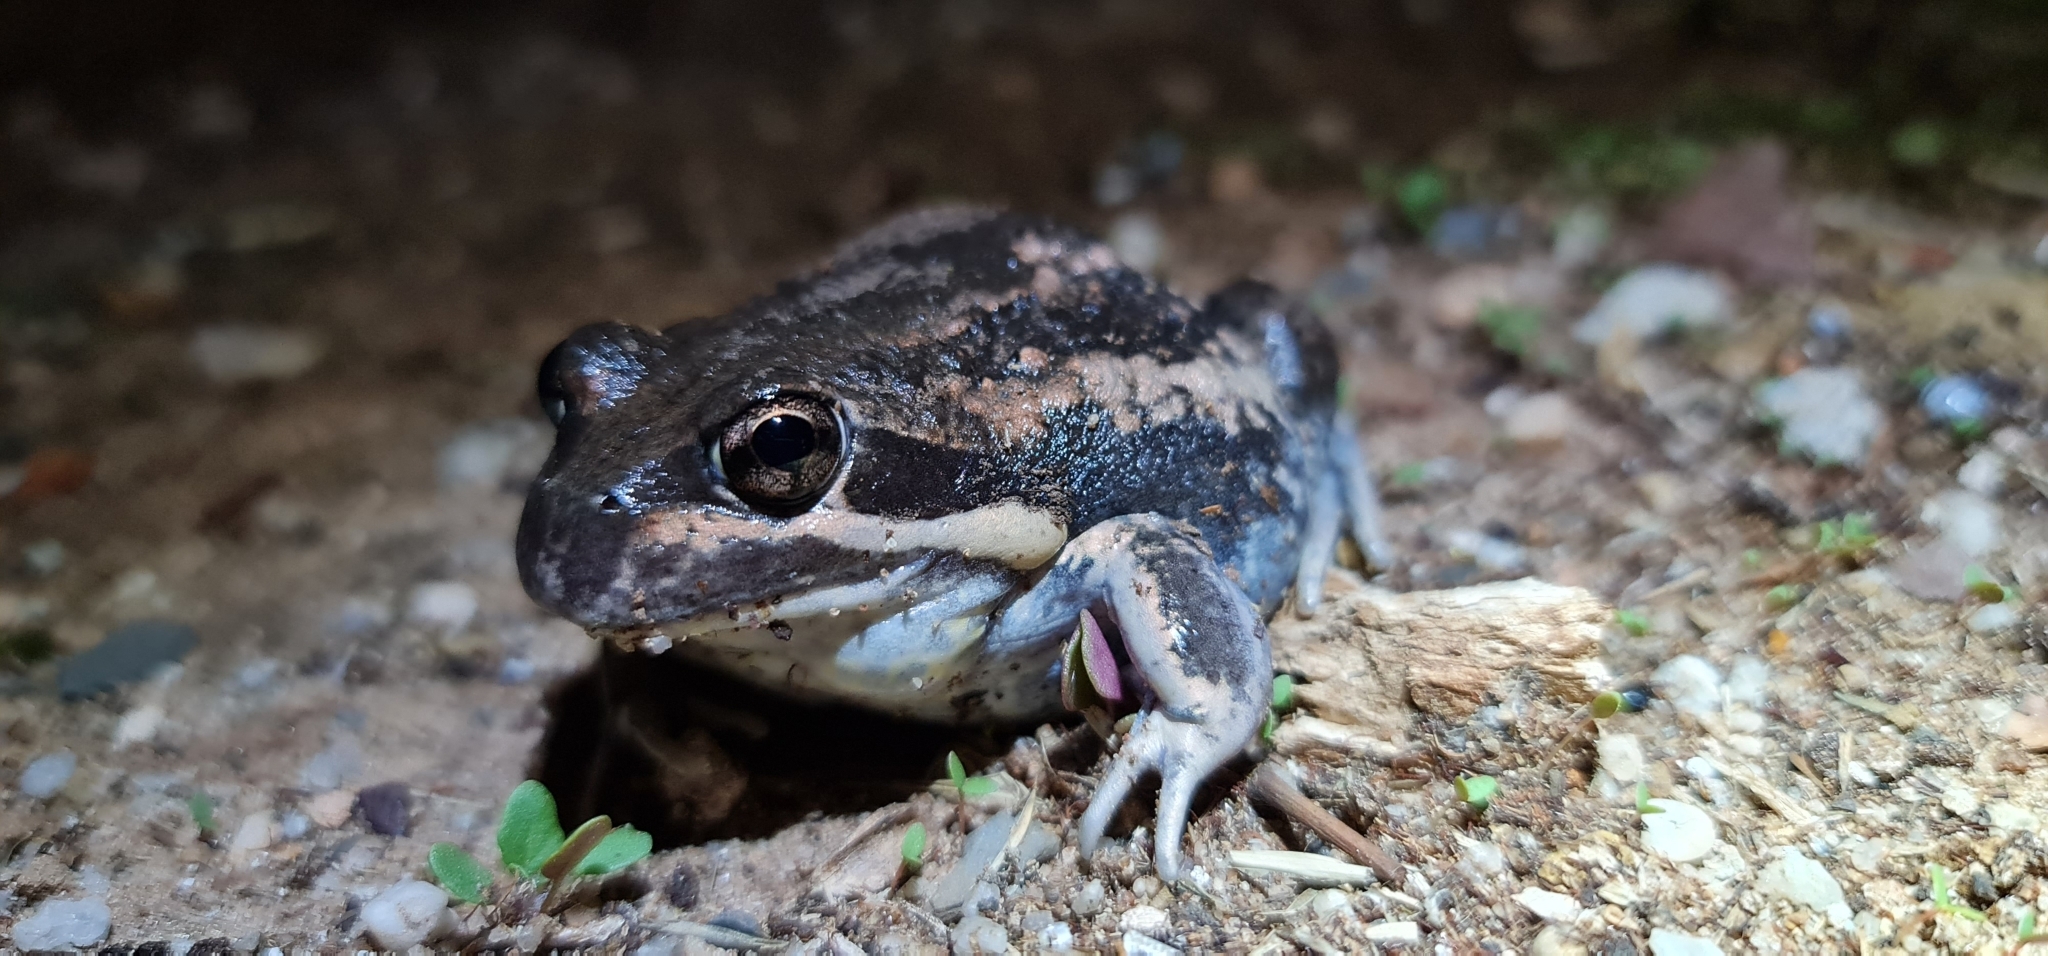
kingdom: Animalia
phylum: Chordata
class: Amphibia
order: Anura
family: Limnodynastidae
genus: Limnodynastes
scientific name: Limnodynastes dumerilii
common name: Banjo frog
